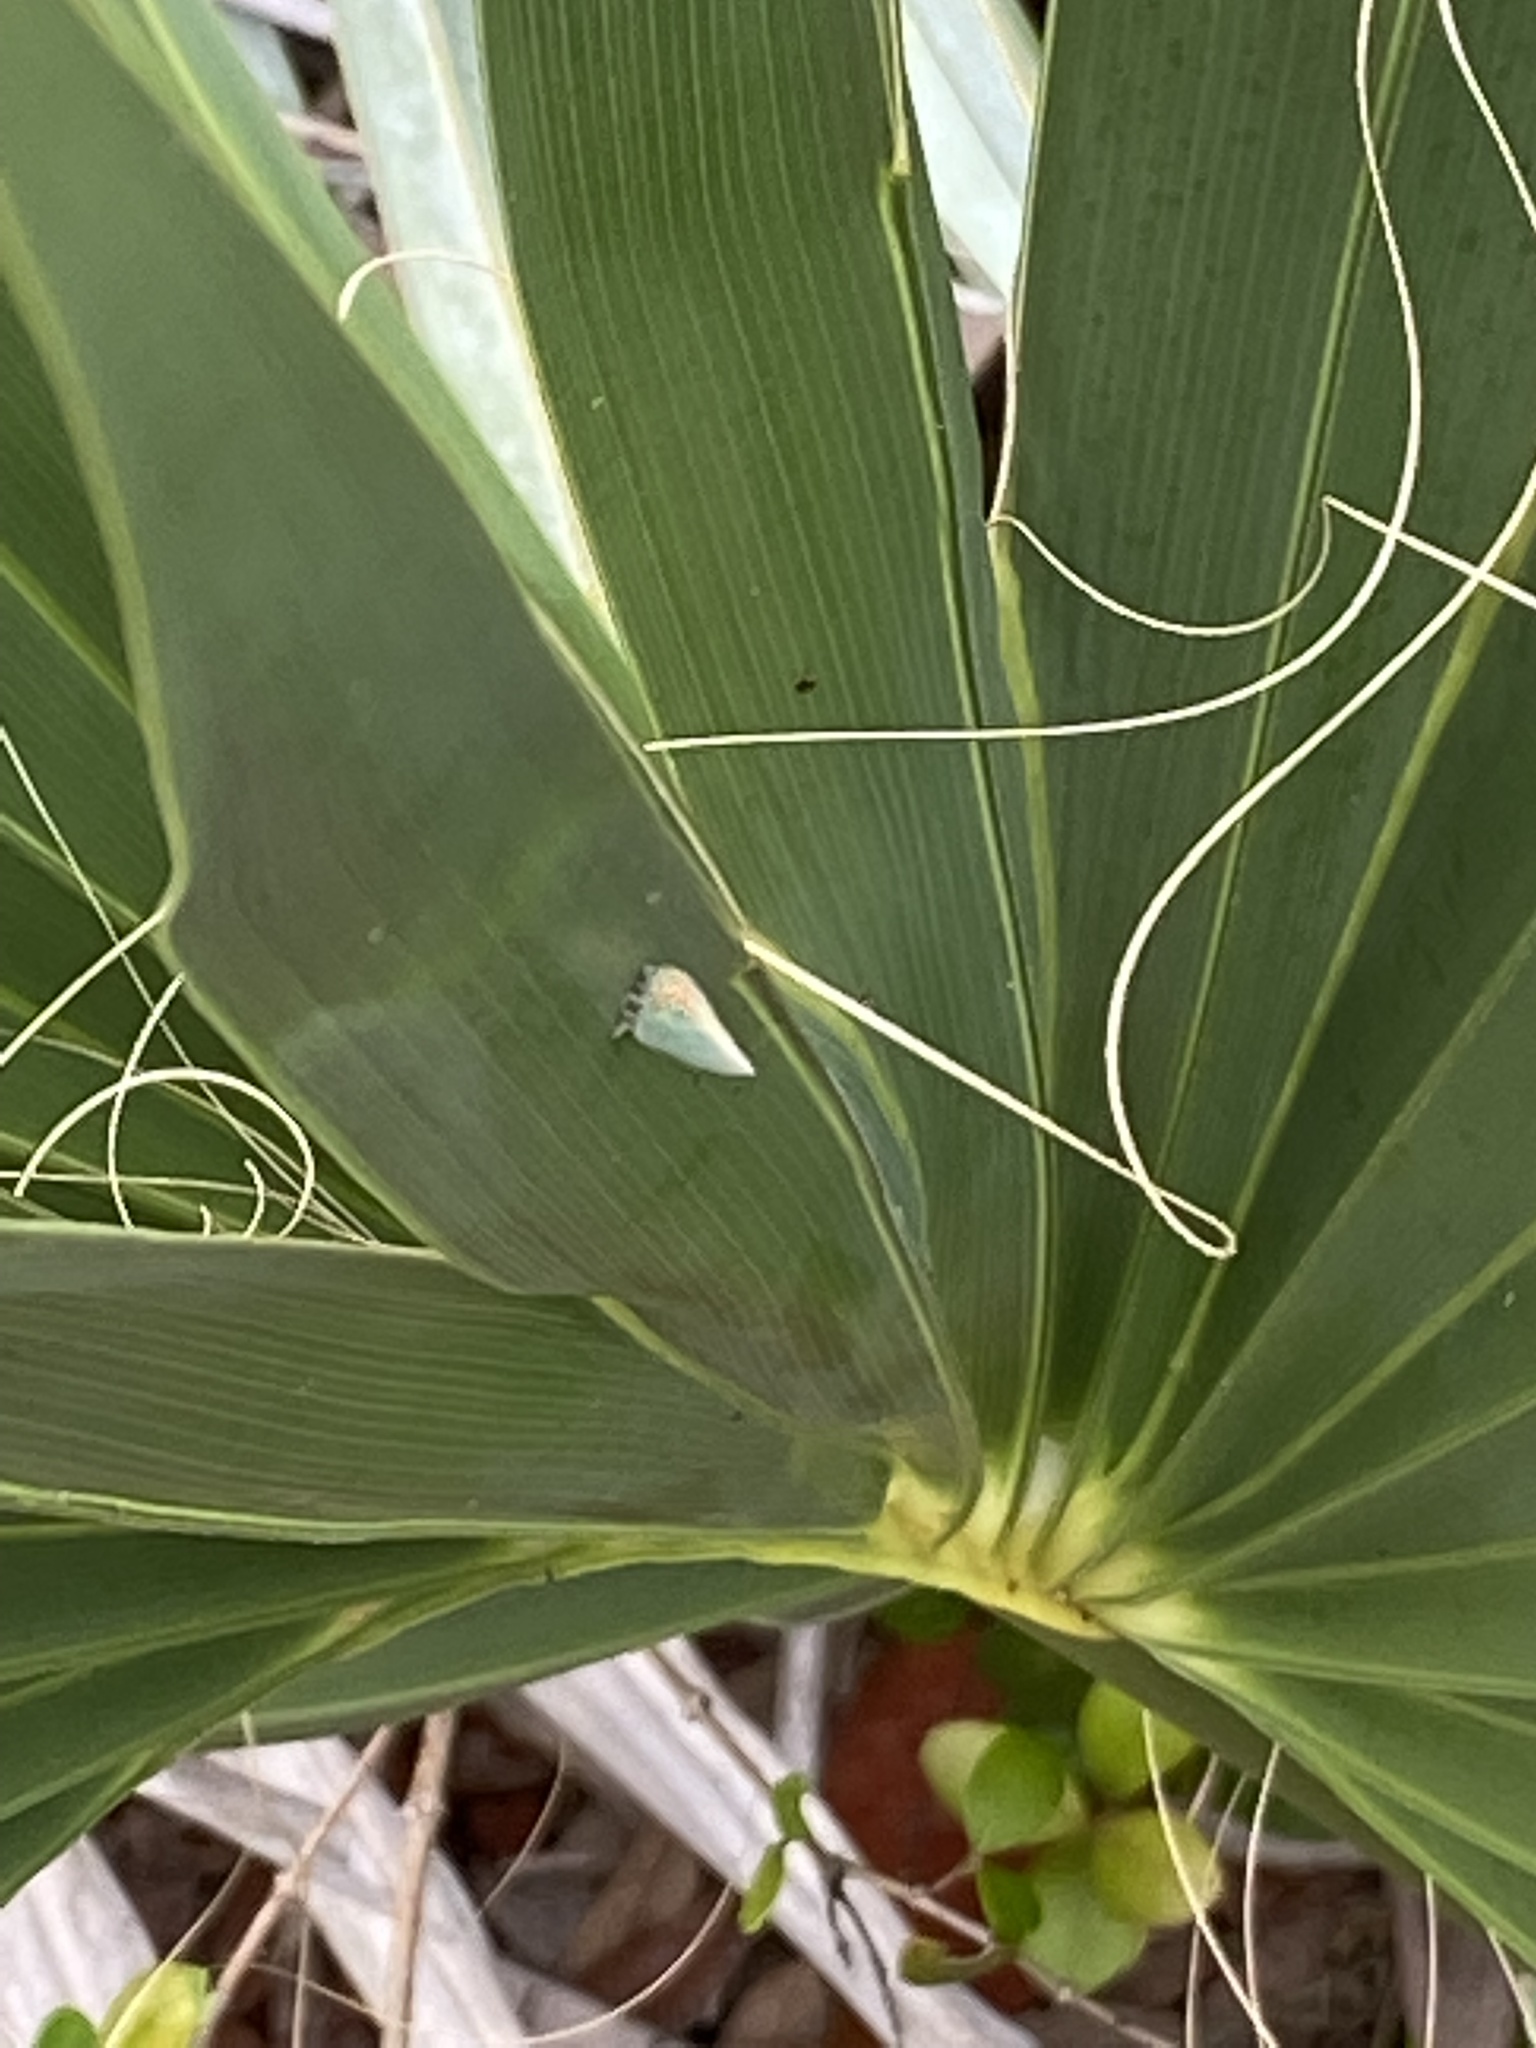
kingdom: Animalia
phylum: Arthropoda
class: Insecta
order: Hemiptera
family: Flatidae
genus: Ormenaria
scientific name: Ormenaria rufifascia
